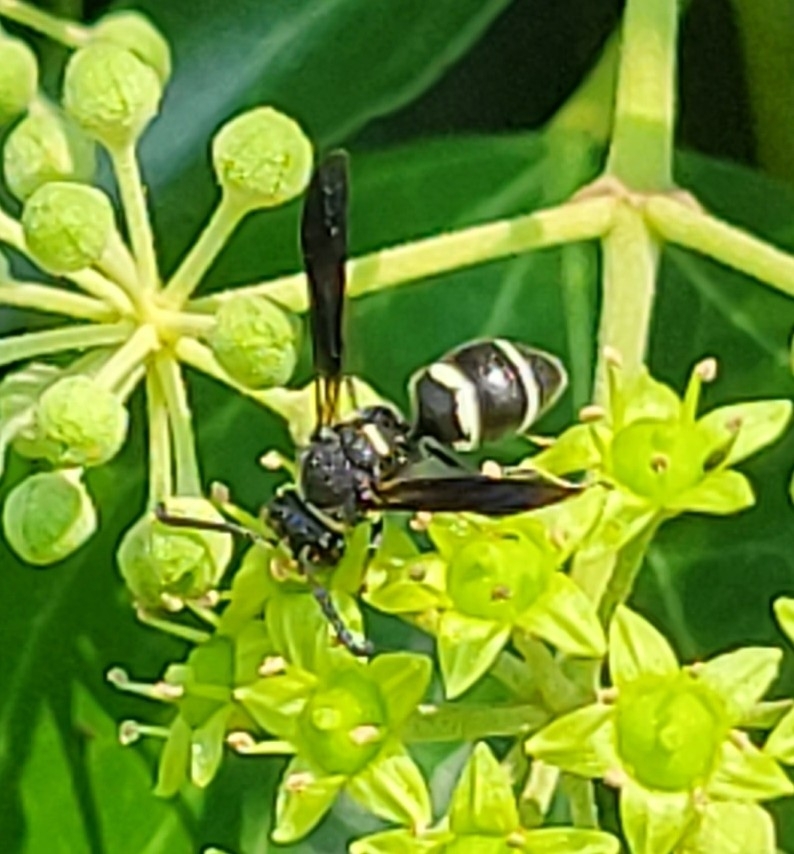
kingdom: Animalia
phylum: Arthropoda
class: Insecta
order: Hymenoptera
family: Eumenidae
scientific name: Eumenidae
